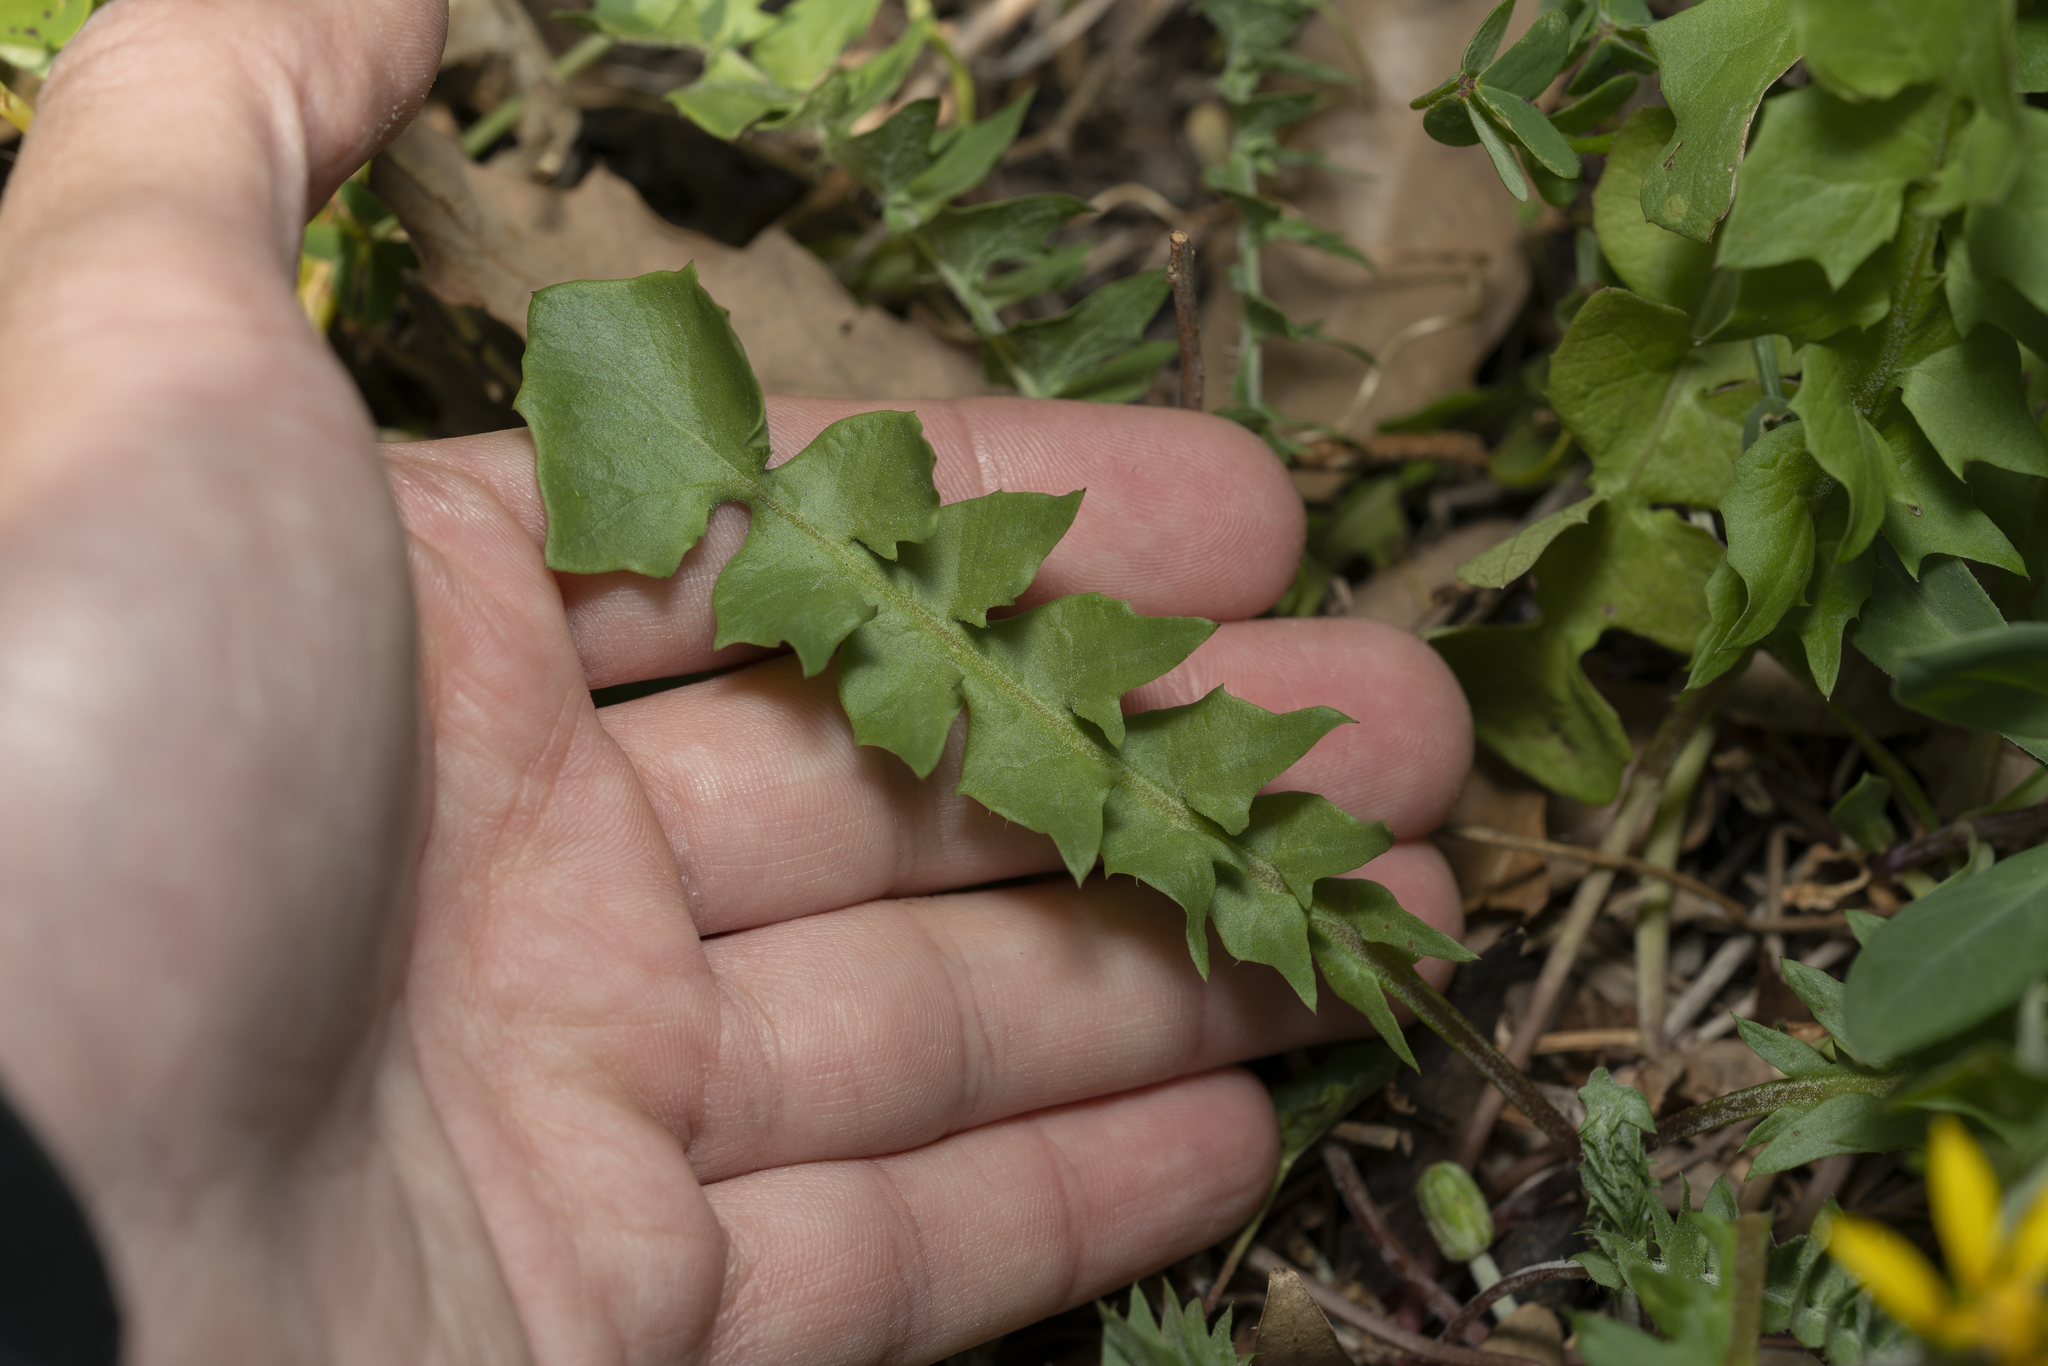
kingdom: Plantae
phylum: Tracheophyta
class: Magnoliopsida
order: Asterales
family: Asteraceae
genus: Hyoseris
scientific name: Hyoseris radiata
